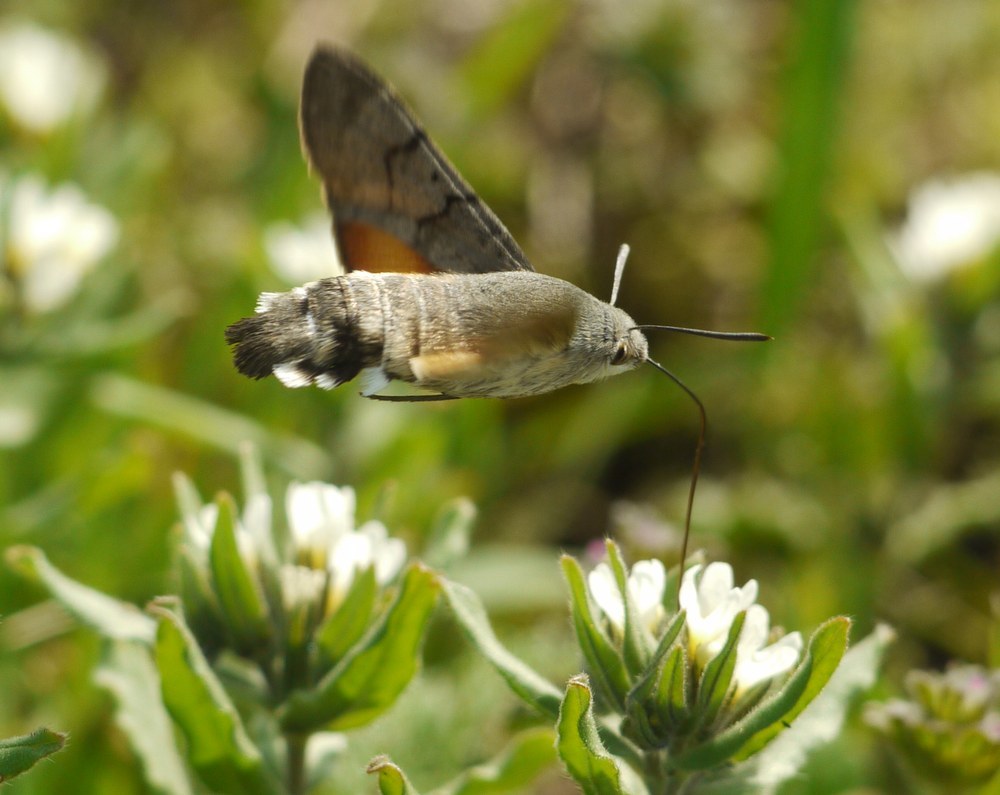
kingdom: Animalia
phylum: Arthropoda
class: Insecta
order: Lepidoptera
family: Sphingidae
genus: Macroglossum
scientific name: Macroglossum stellatarum
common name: Humming-bird hawk-moth
